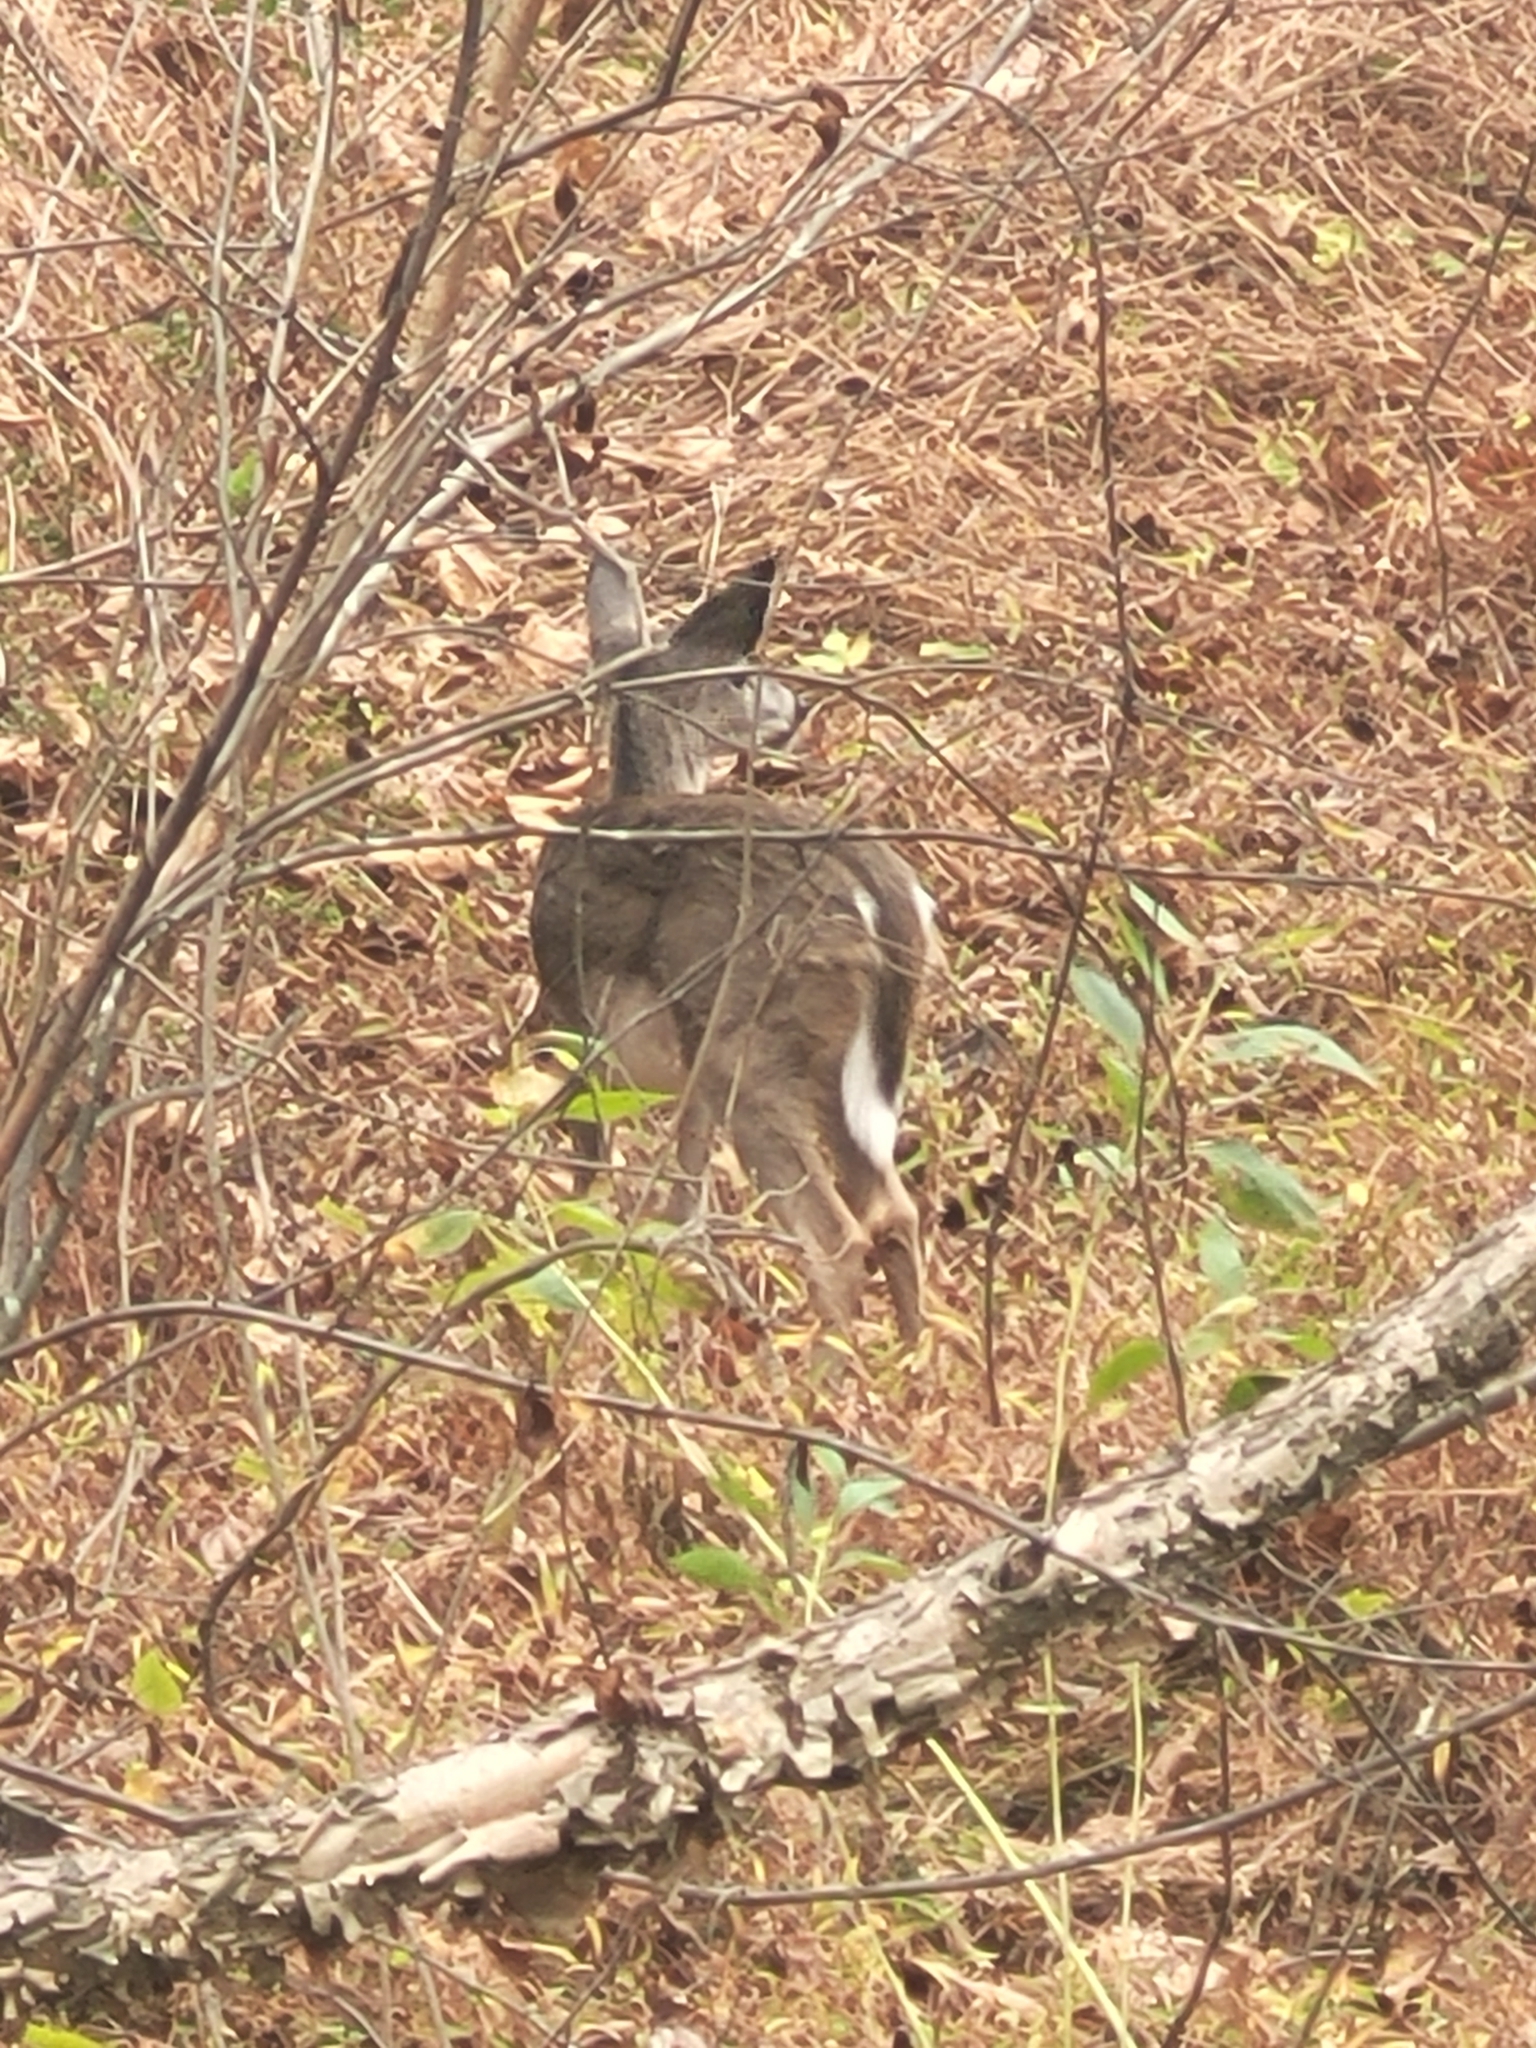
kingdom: Animalia
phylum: Chordata
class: Mammalia
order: Artiodactyla
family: Cervidae
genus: Odocoileus
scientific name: Odocoileus virginianus
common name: White-tailed deer
